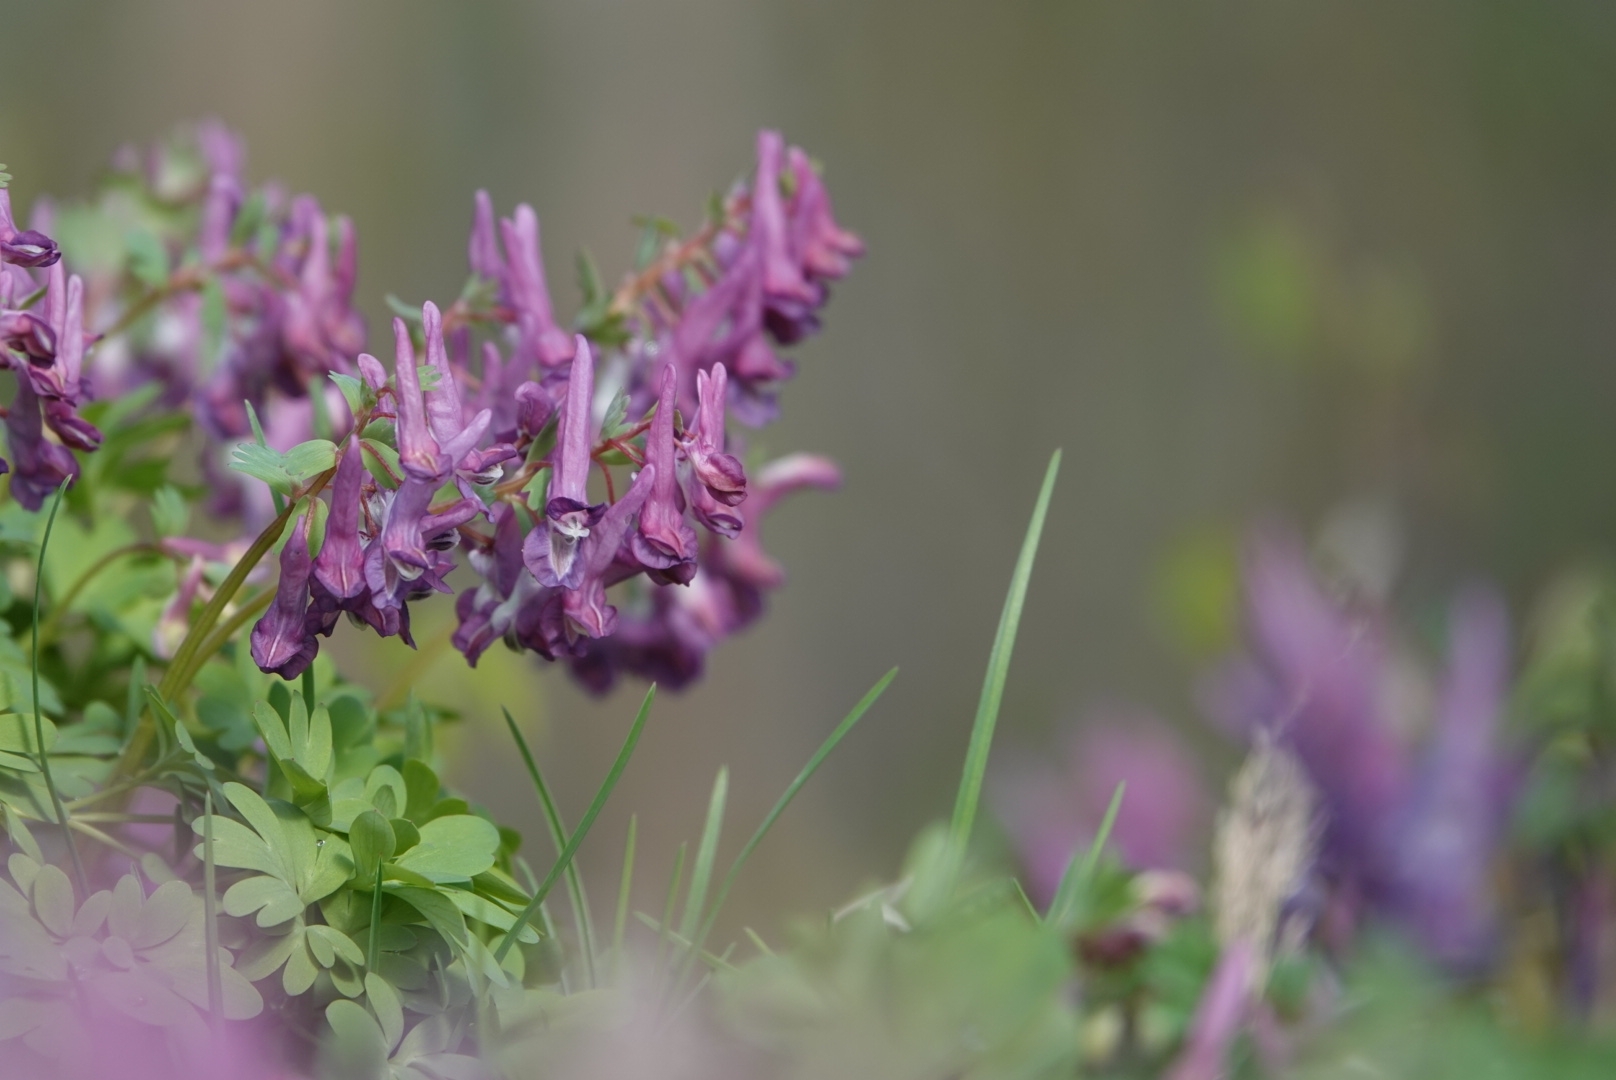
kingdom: Plantae
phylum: Tracheophyta
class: Magnoliopsida
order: Ranunculales
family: Papaveraceae
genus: Corydalis
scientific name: Corydalis solida
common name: Bird-in-a-bush
